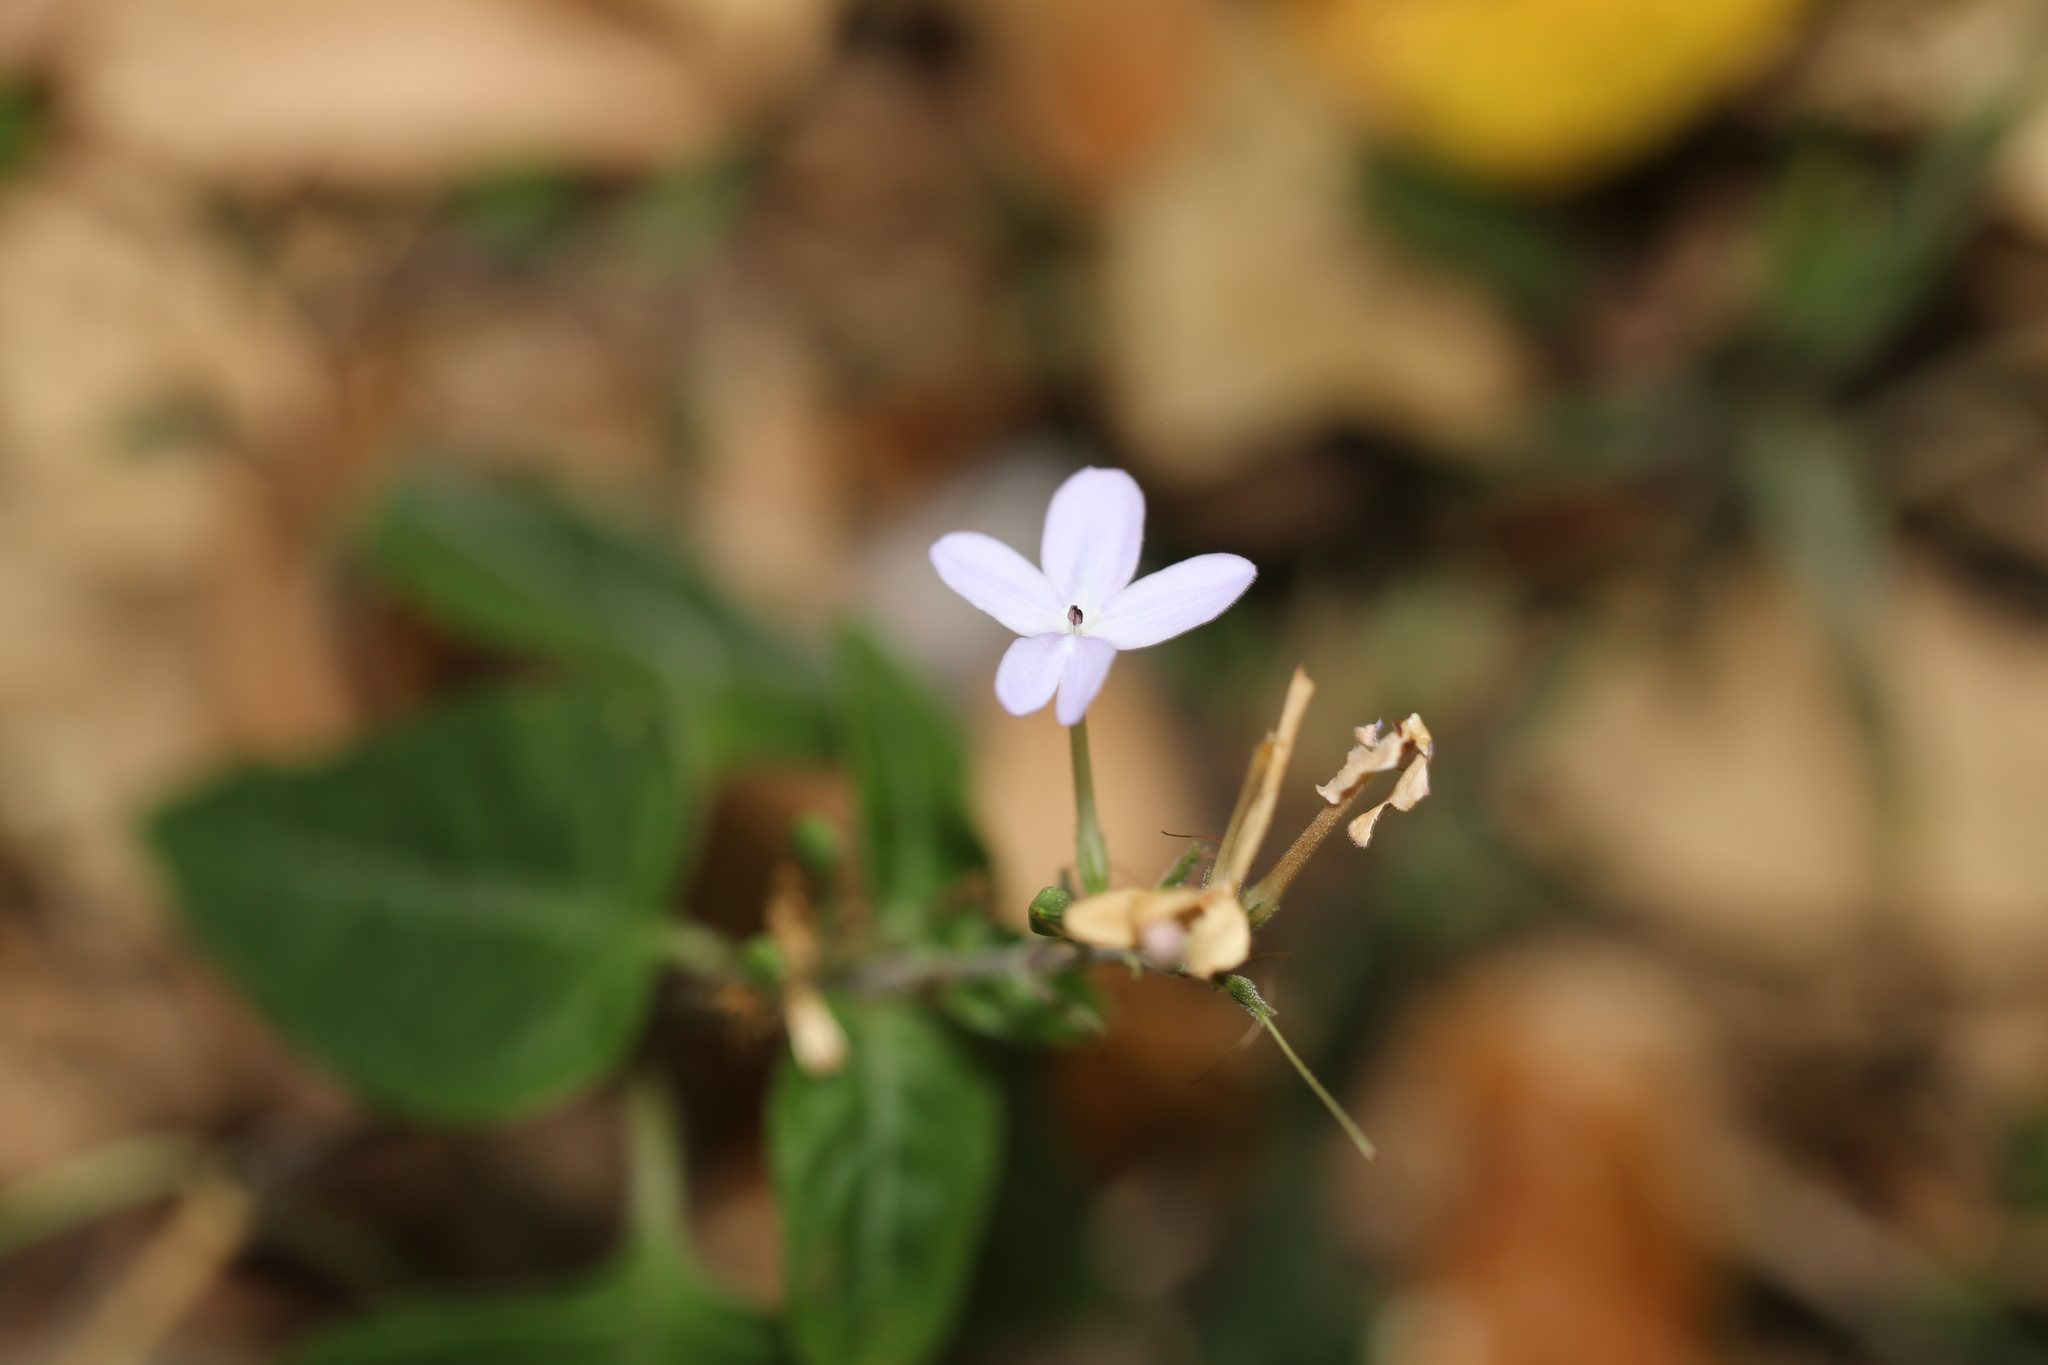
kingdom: Plantae
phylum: Tracheophyta
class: Magnoliopsida
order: Lamiales
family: Acanthaceae
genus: Pseuderanthemum
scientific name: Pseuderanthemum variabile
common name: Night and afternoon
